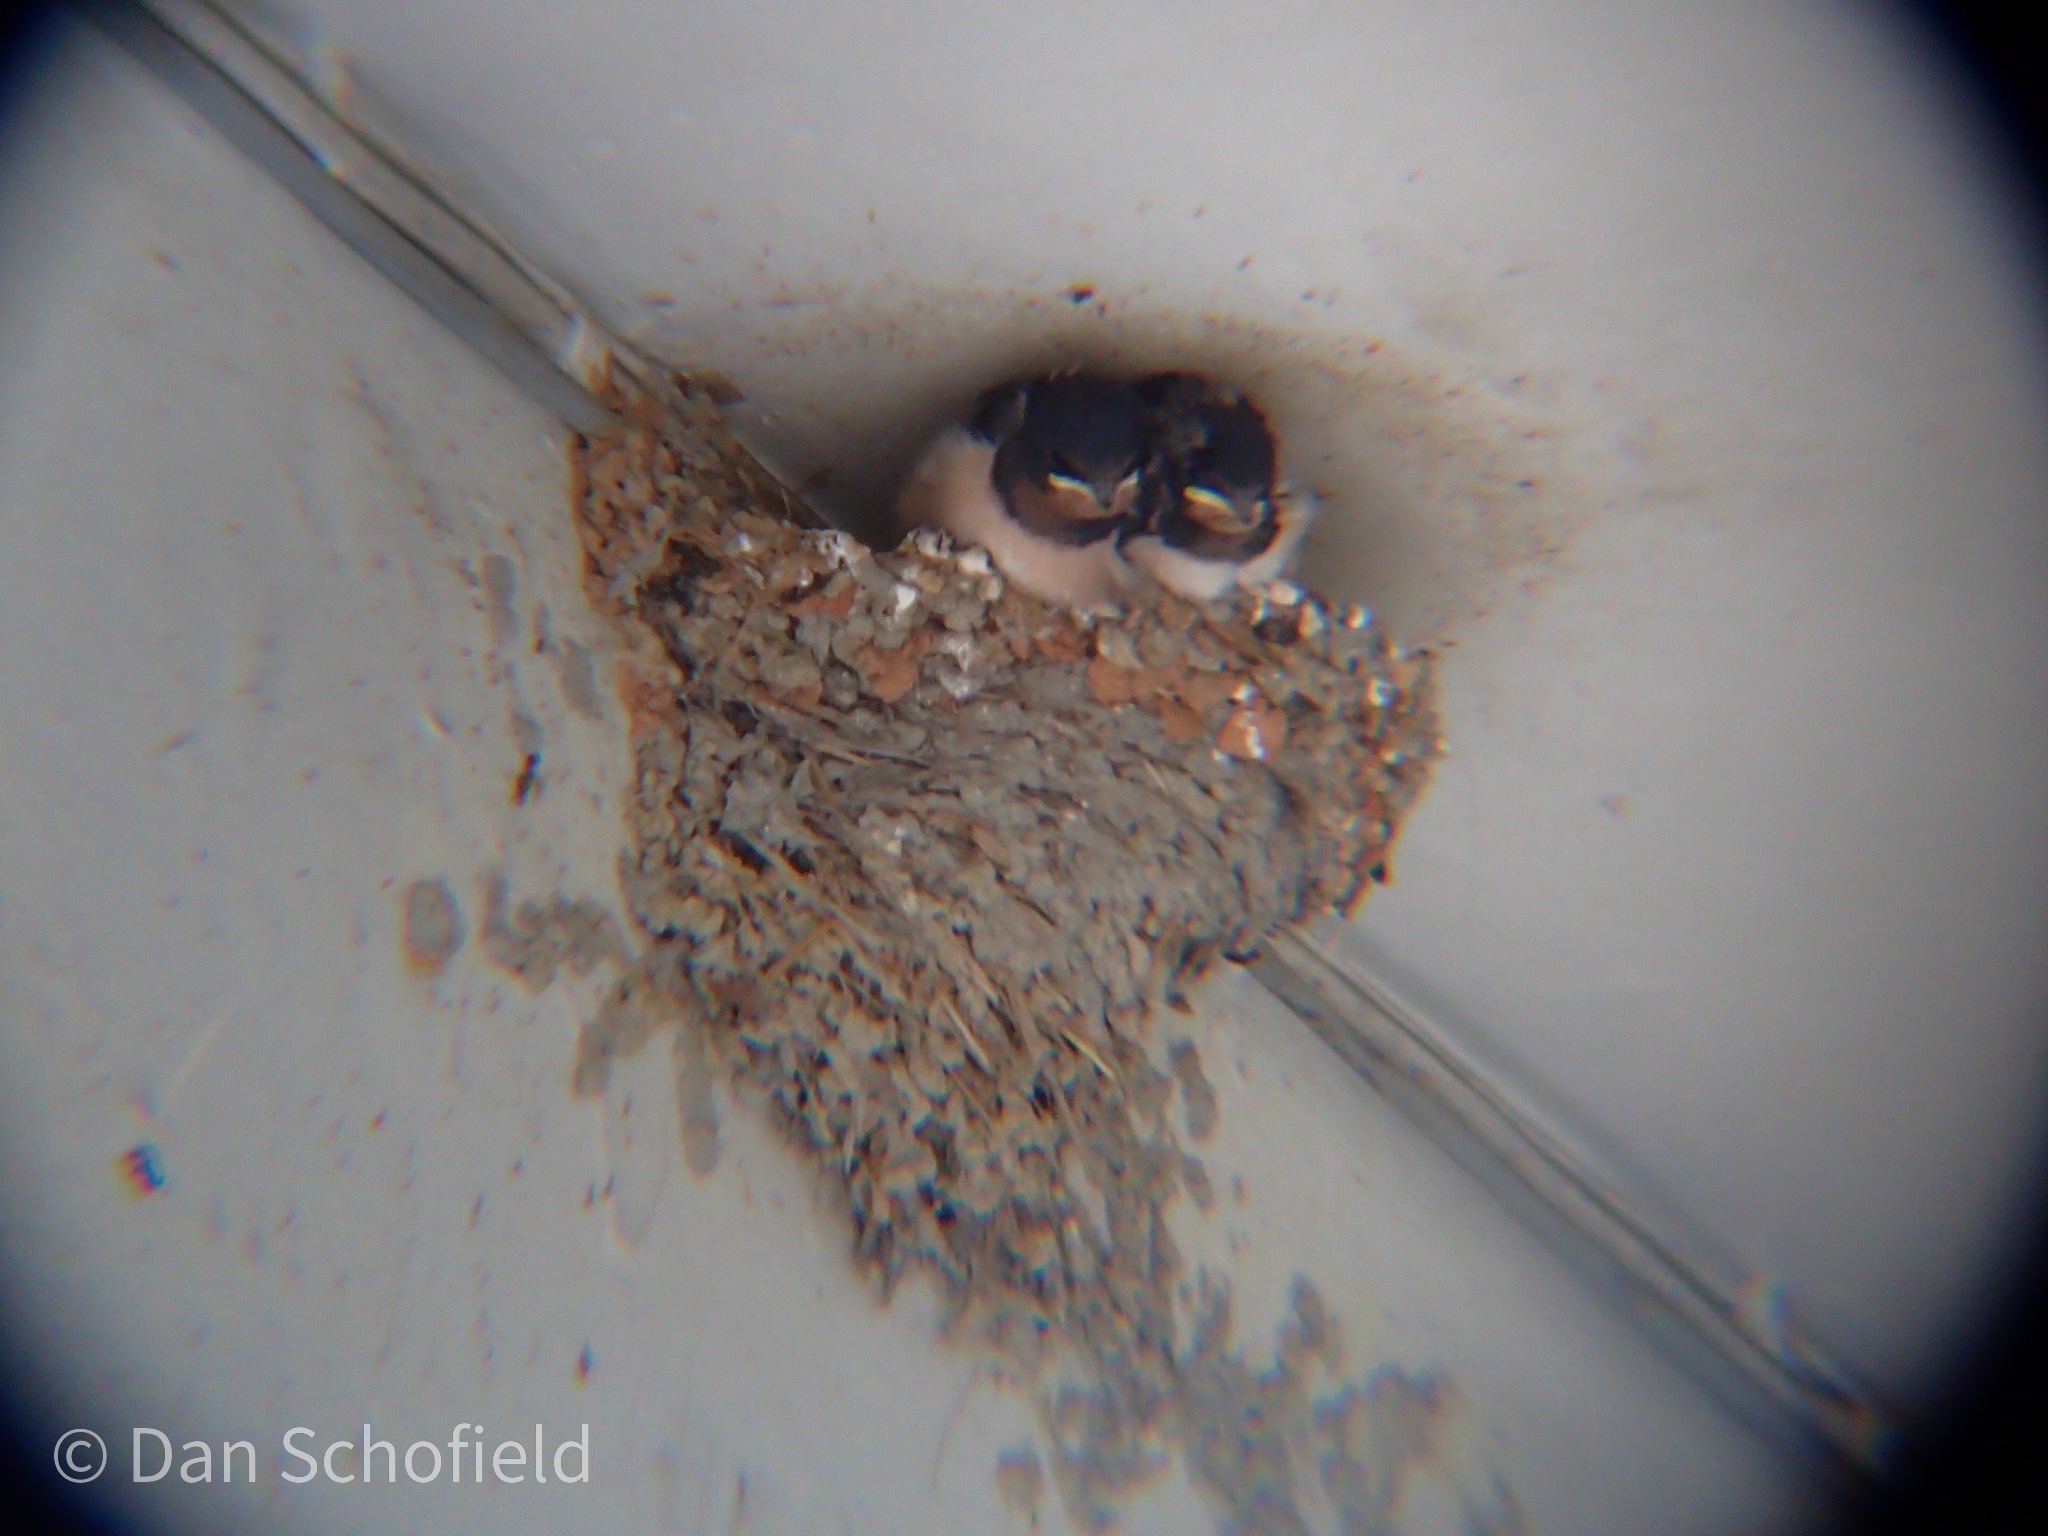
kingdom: Animalia
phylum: Chordata
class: Aves
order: Passeriformes
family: Hirundinidae
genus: Hirundo
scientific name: Hirundo rustica
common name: Barn swallow
